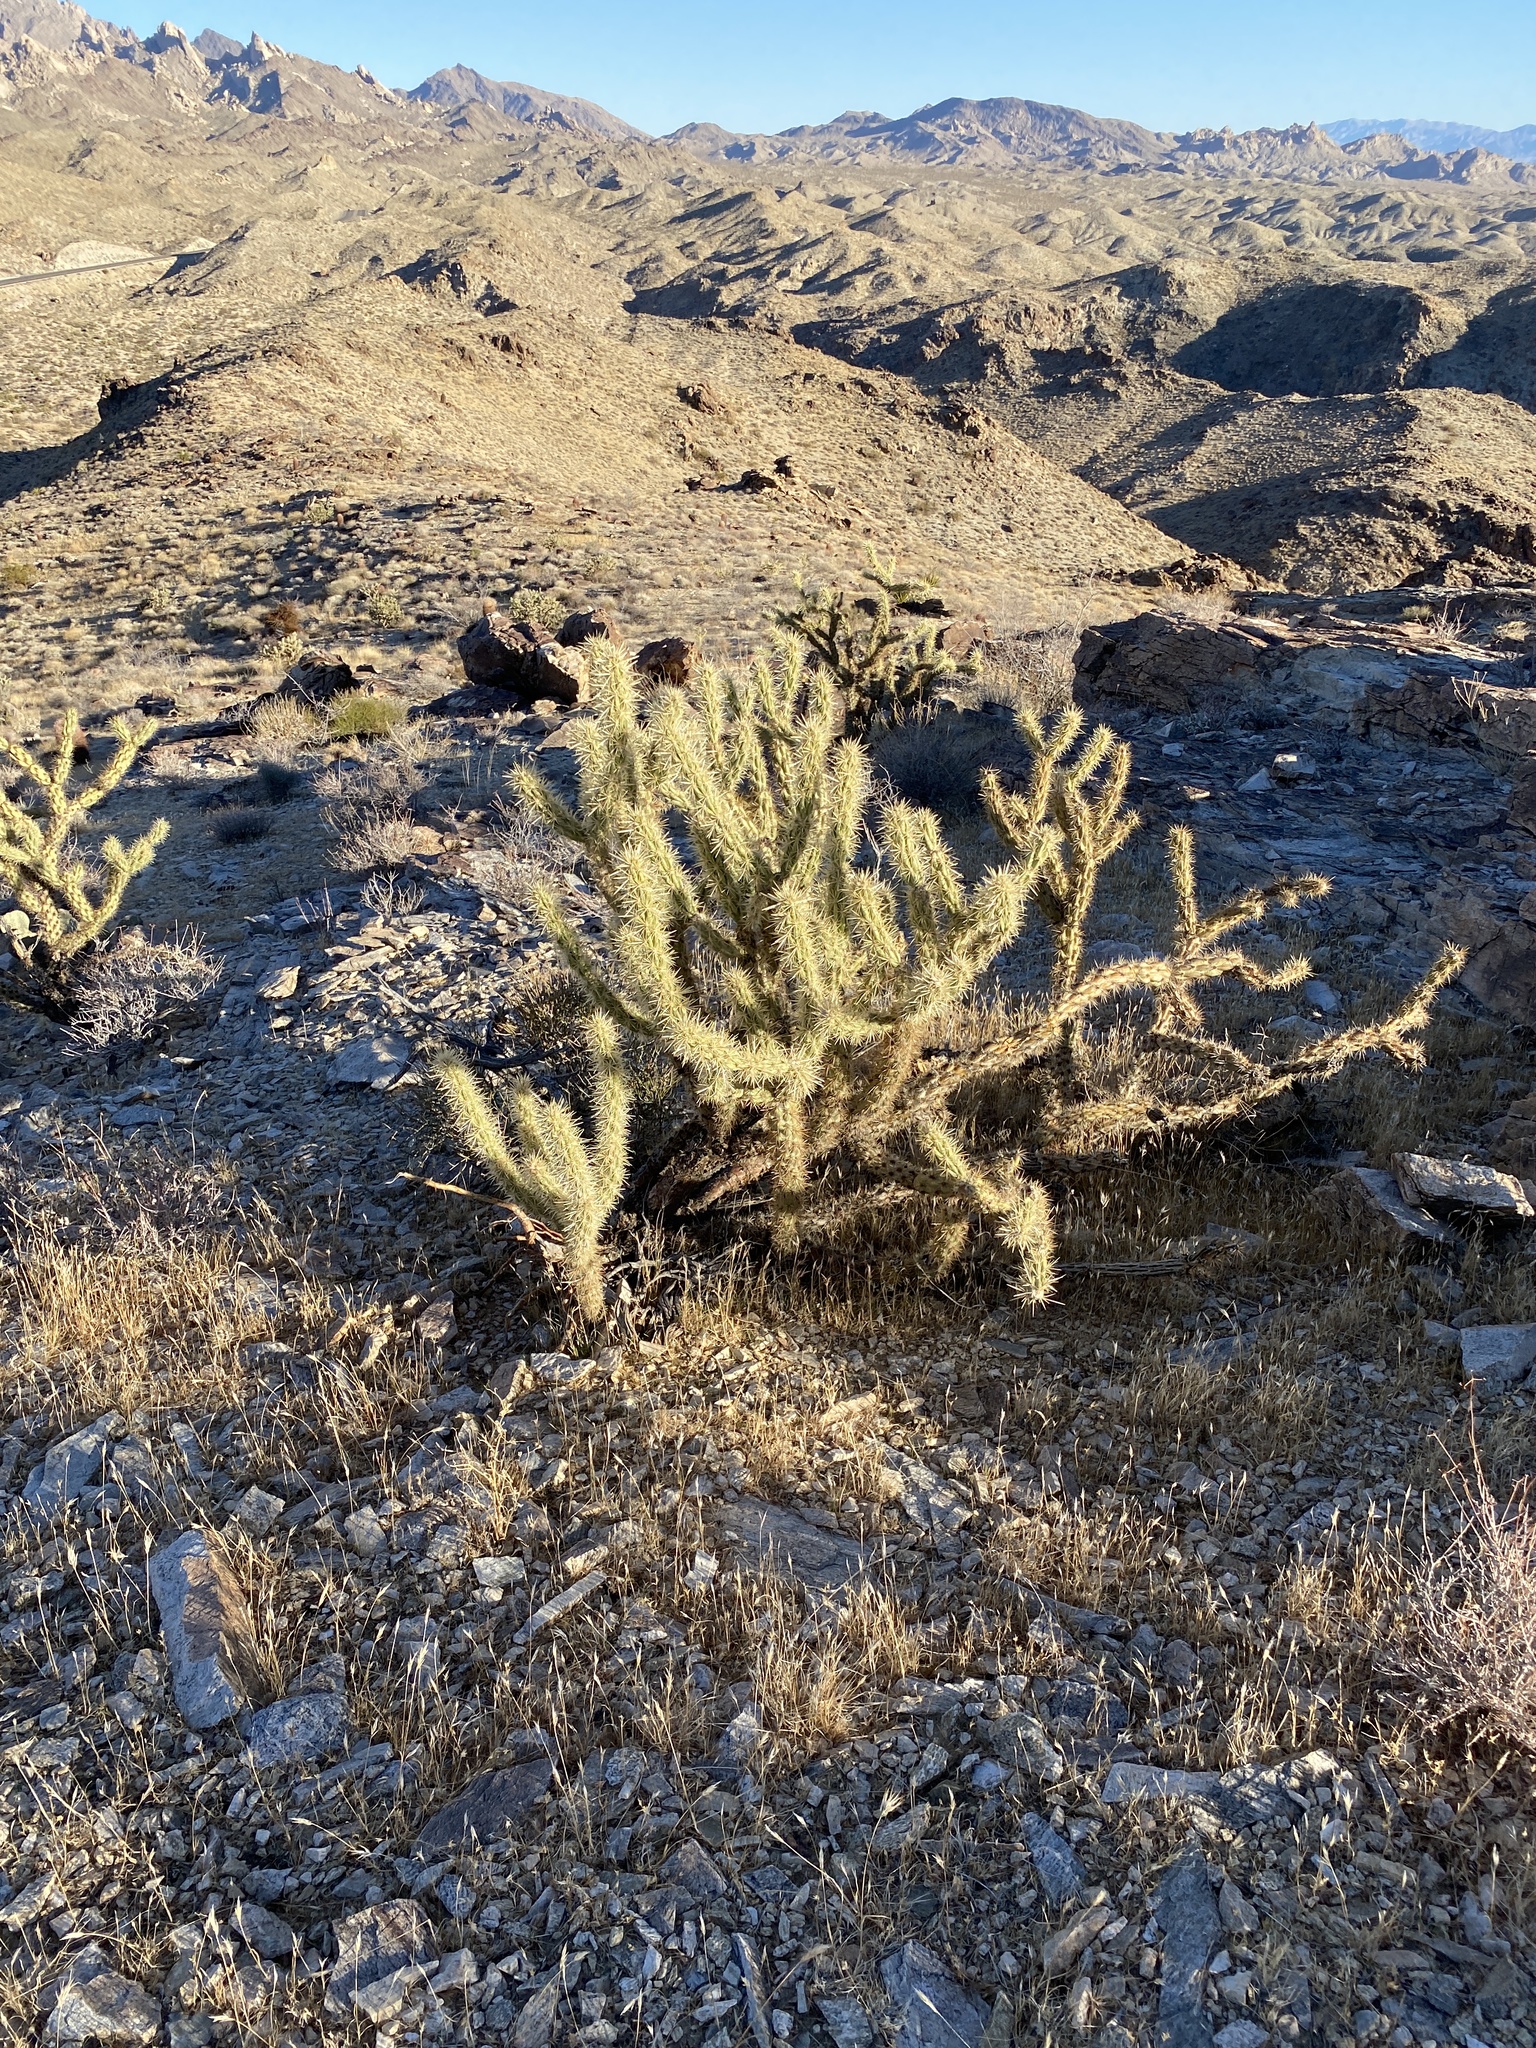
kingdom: Plantae
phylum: Tracheophyta
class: Magnoliopsida
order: Caryophyllales
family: Cactaceae
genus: Cylindropuntia
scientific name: Cylindropuntia acanthocarpa
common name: Buckhorn cholla
